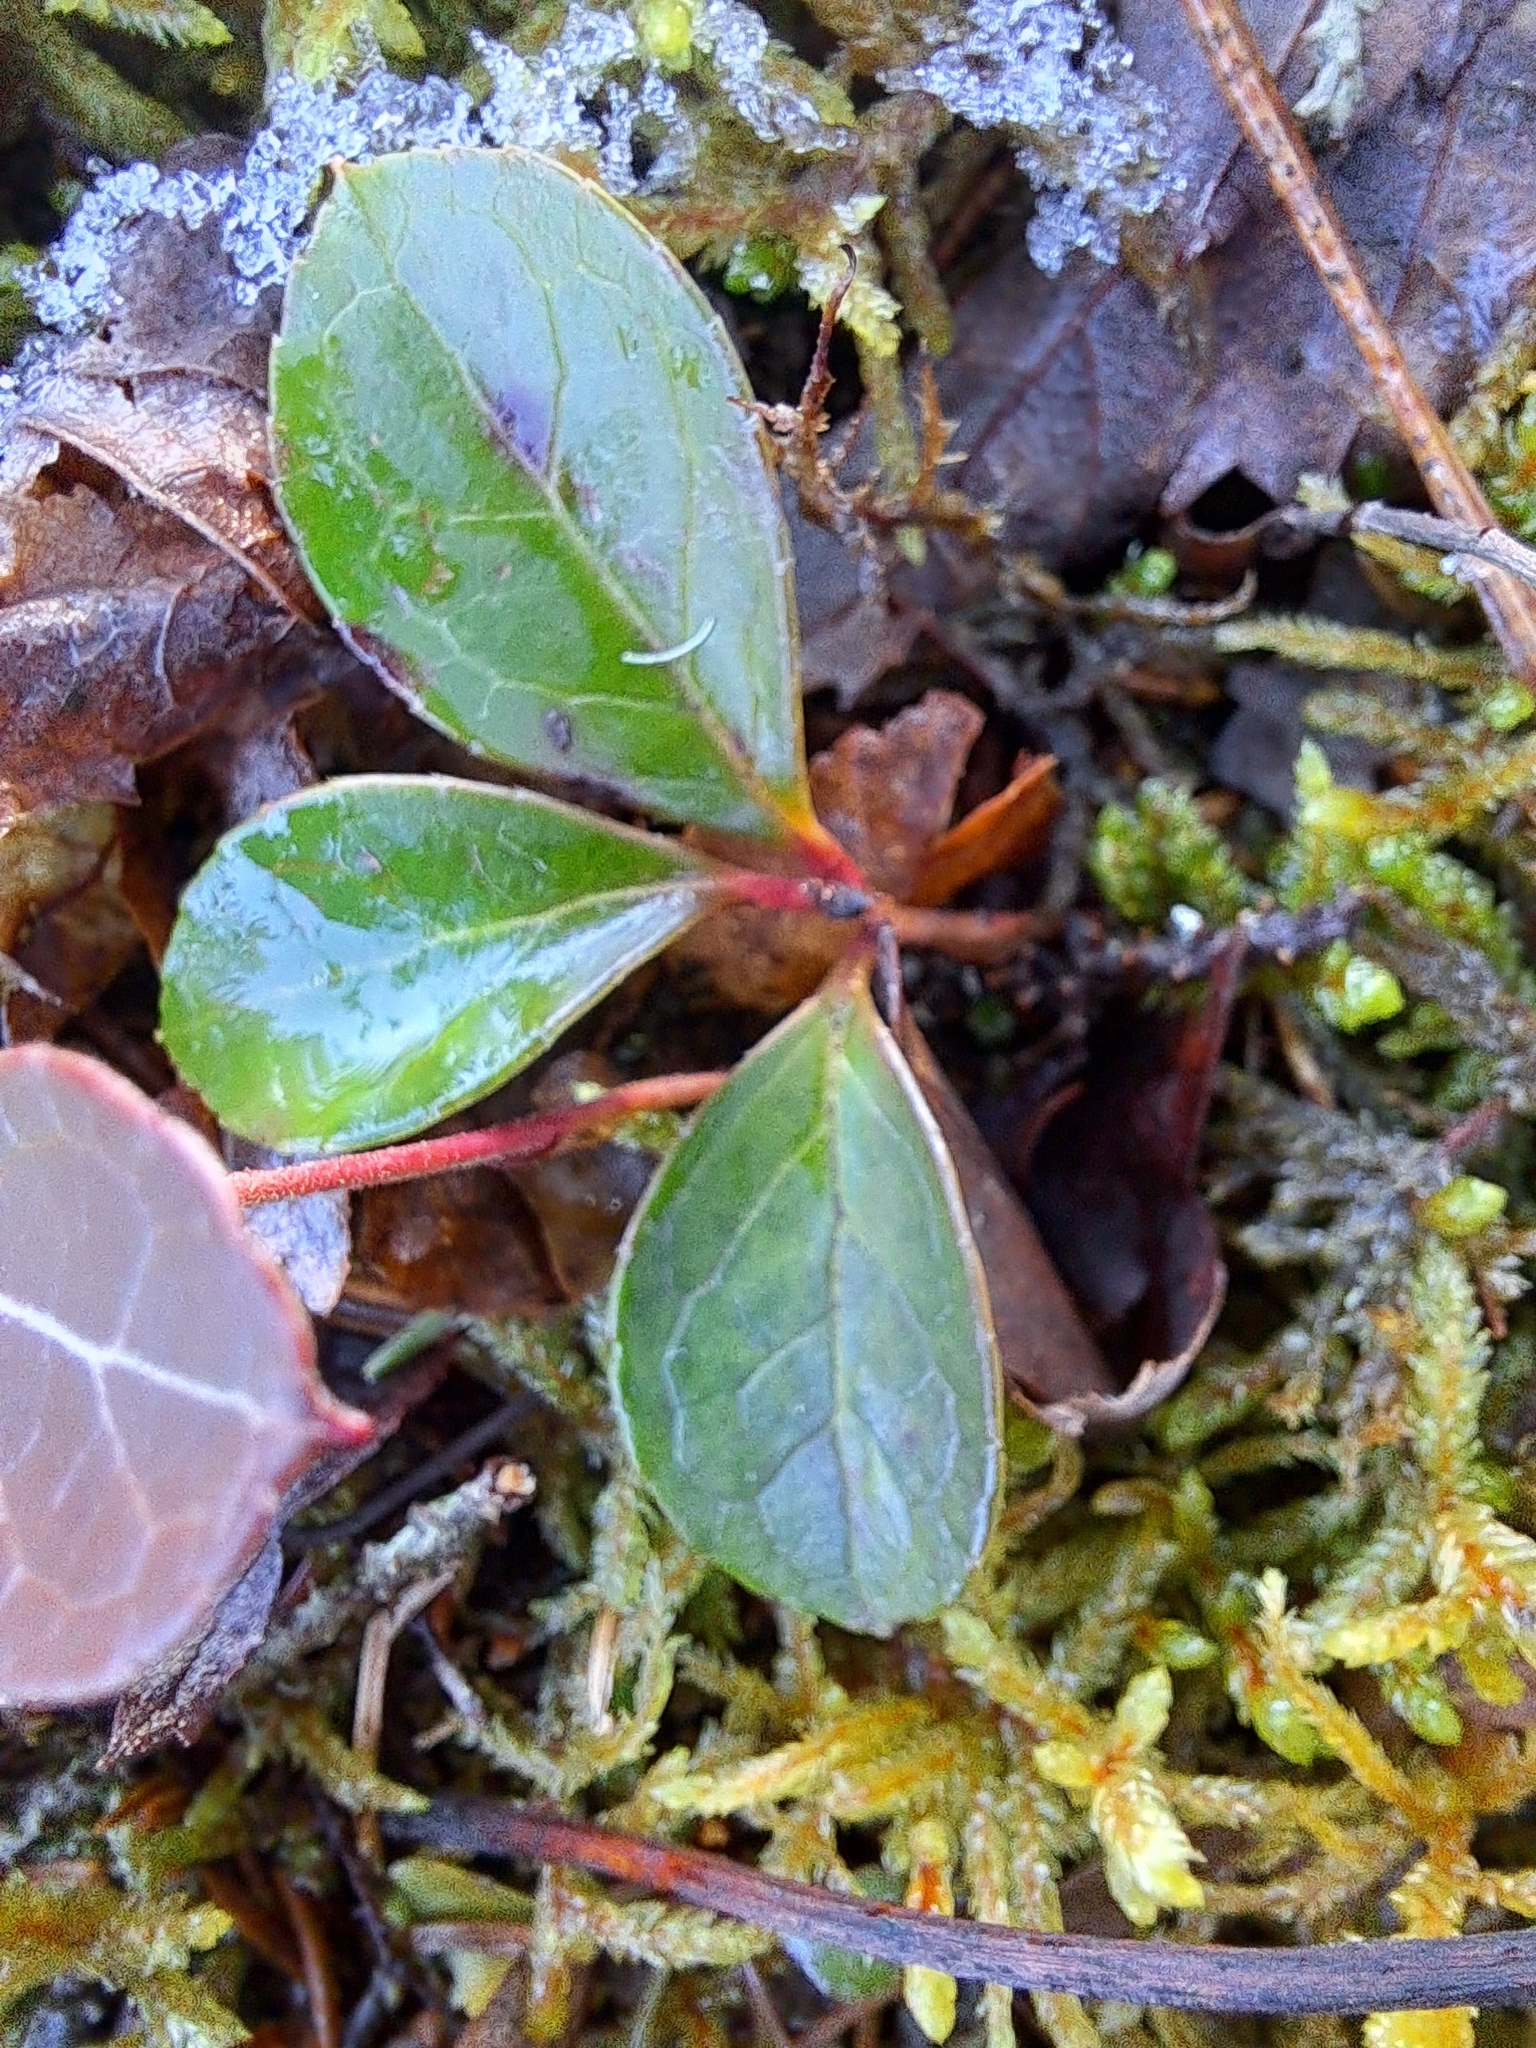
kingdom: Plantae
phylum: Tracheophyta
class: Magnoliopsida
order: Ericales
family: Ericaceae
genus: Gaultheria
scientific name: Gaultheria procumbens
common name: Checkerberry
